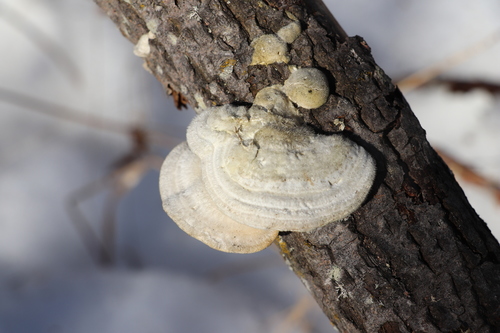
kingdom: Fungi
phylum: Basidiomycota
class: Agaricomycetes
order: Polyporales
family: Polyporaceae
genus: Trametes
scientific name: Trametes hirsuta
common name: Hairy bracket
